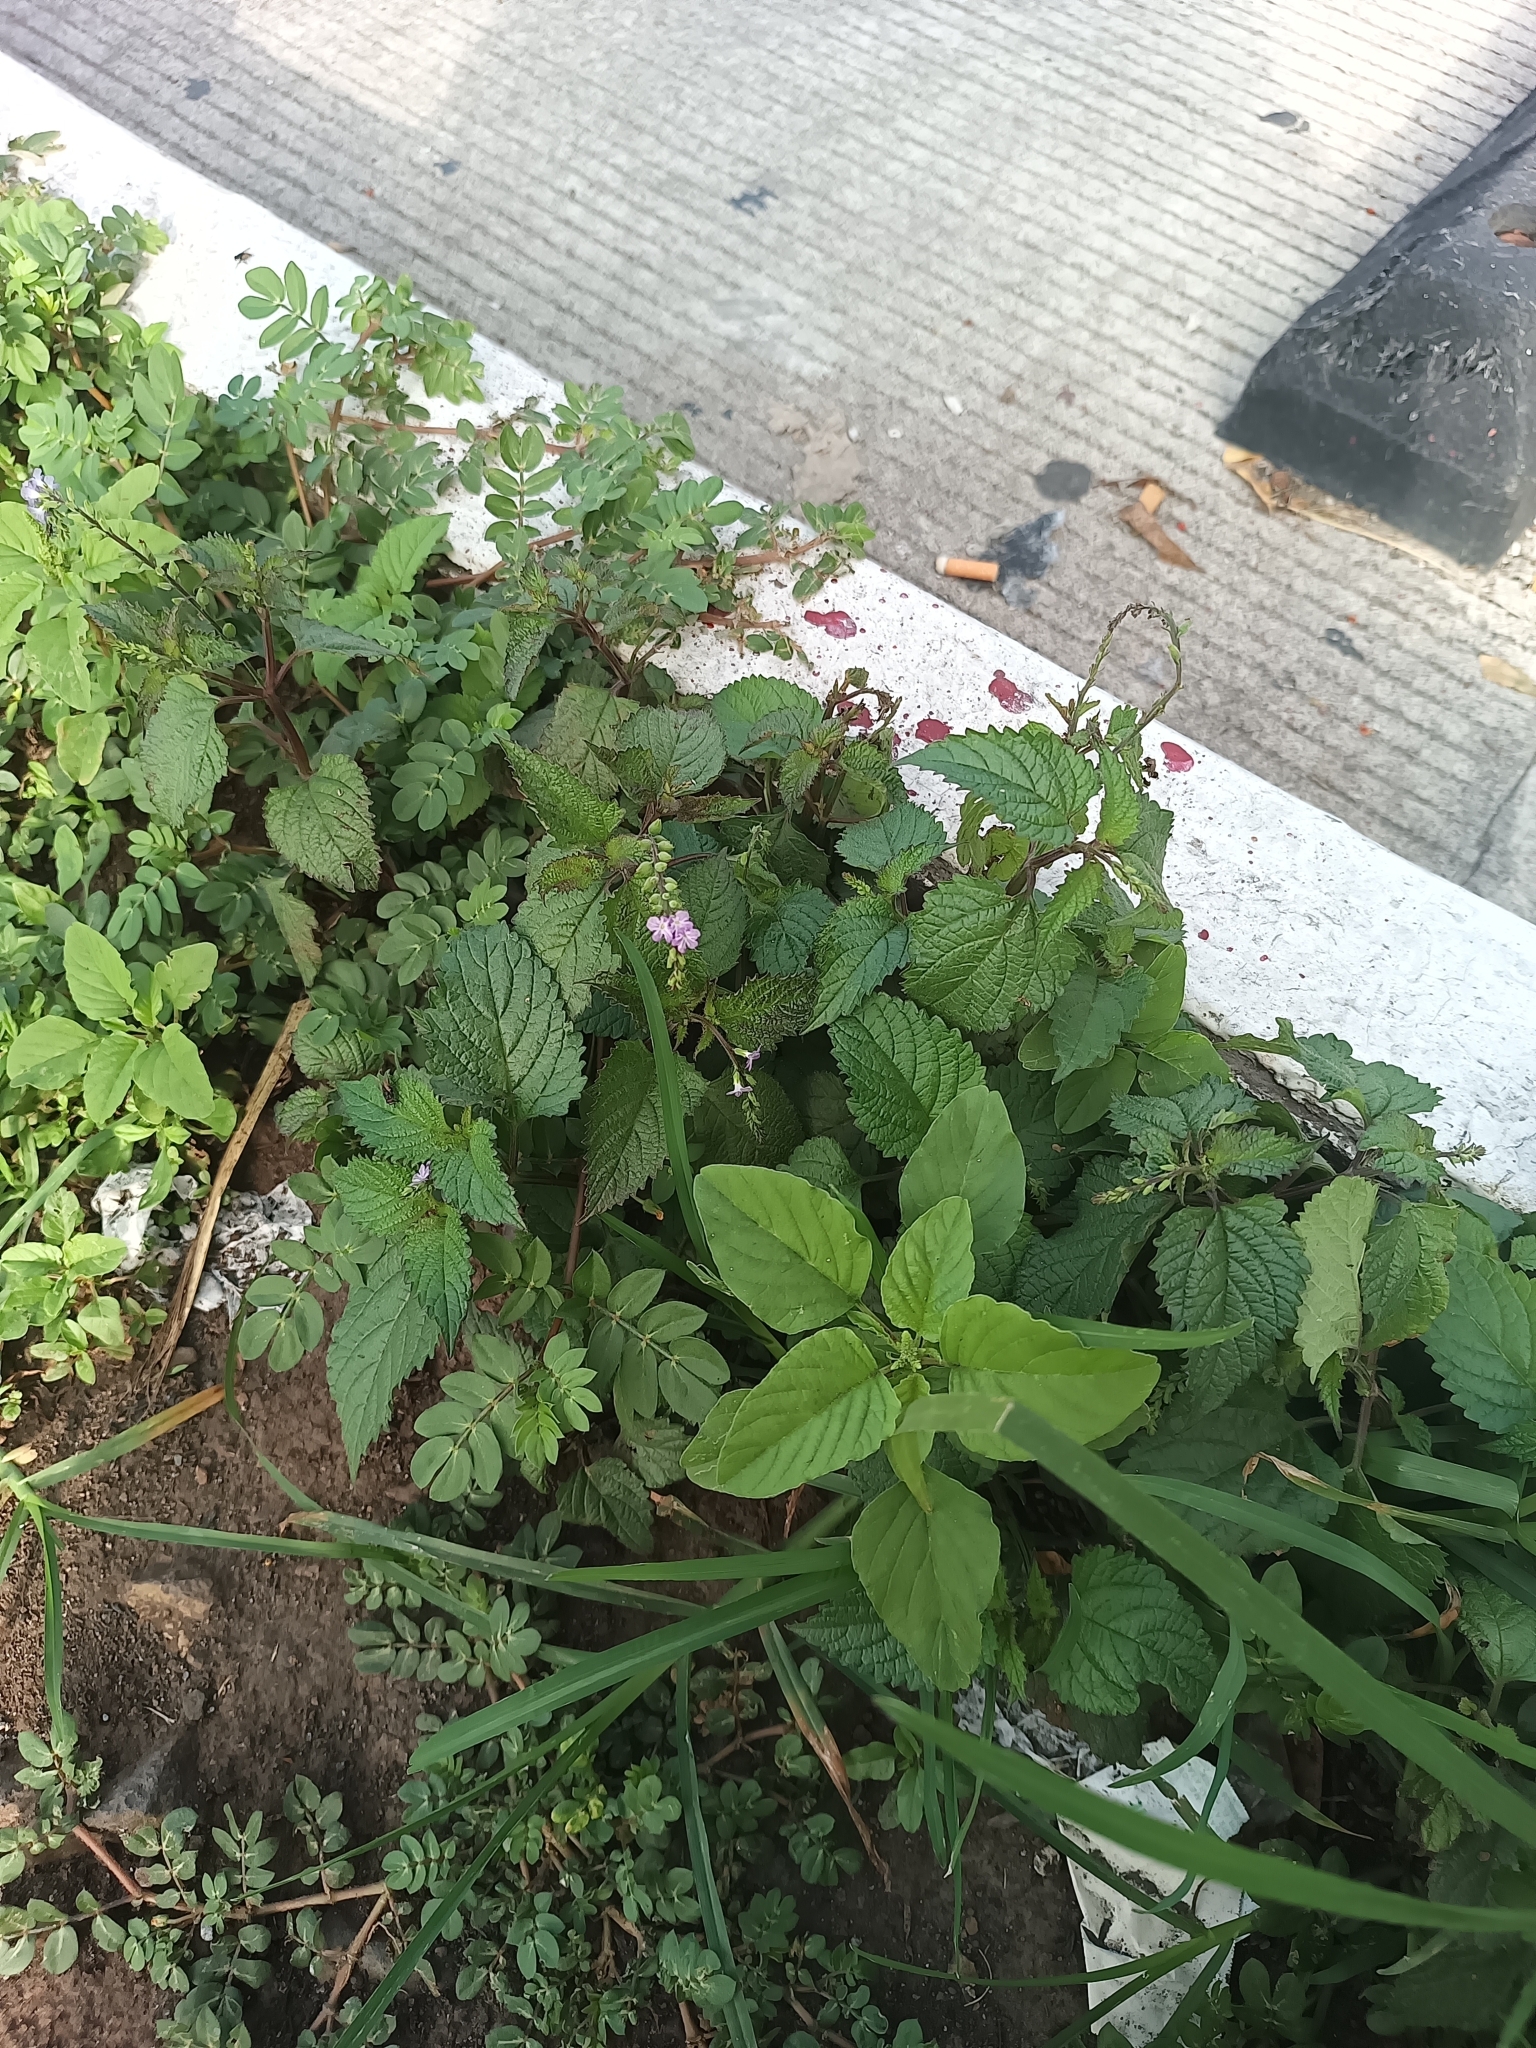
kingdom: Plantae
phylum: Tracheophyta
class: Magnoliopsida
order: Lamiales
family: Verbenaceae
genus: Priva
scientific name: Priva lappulacea
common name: Fasten-'pon-coat
